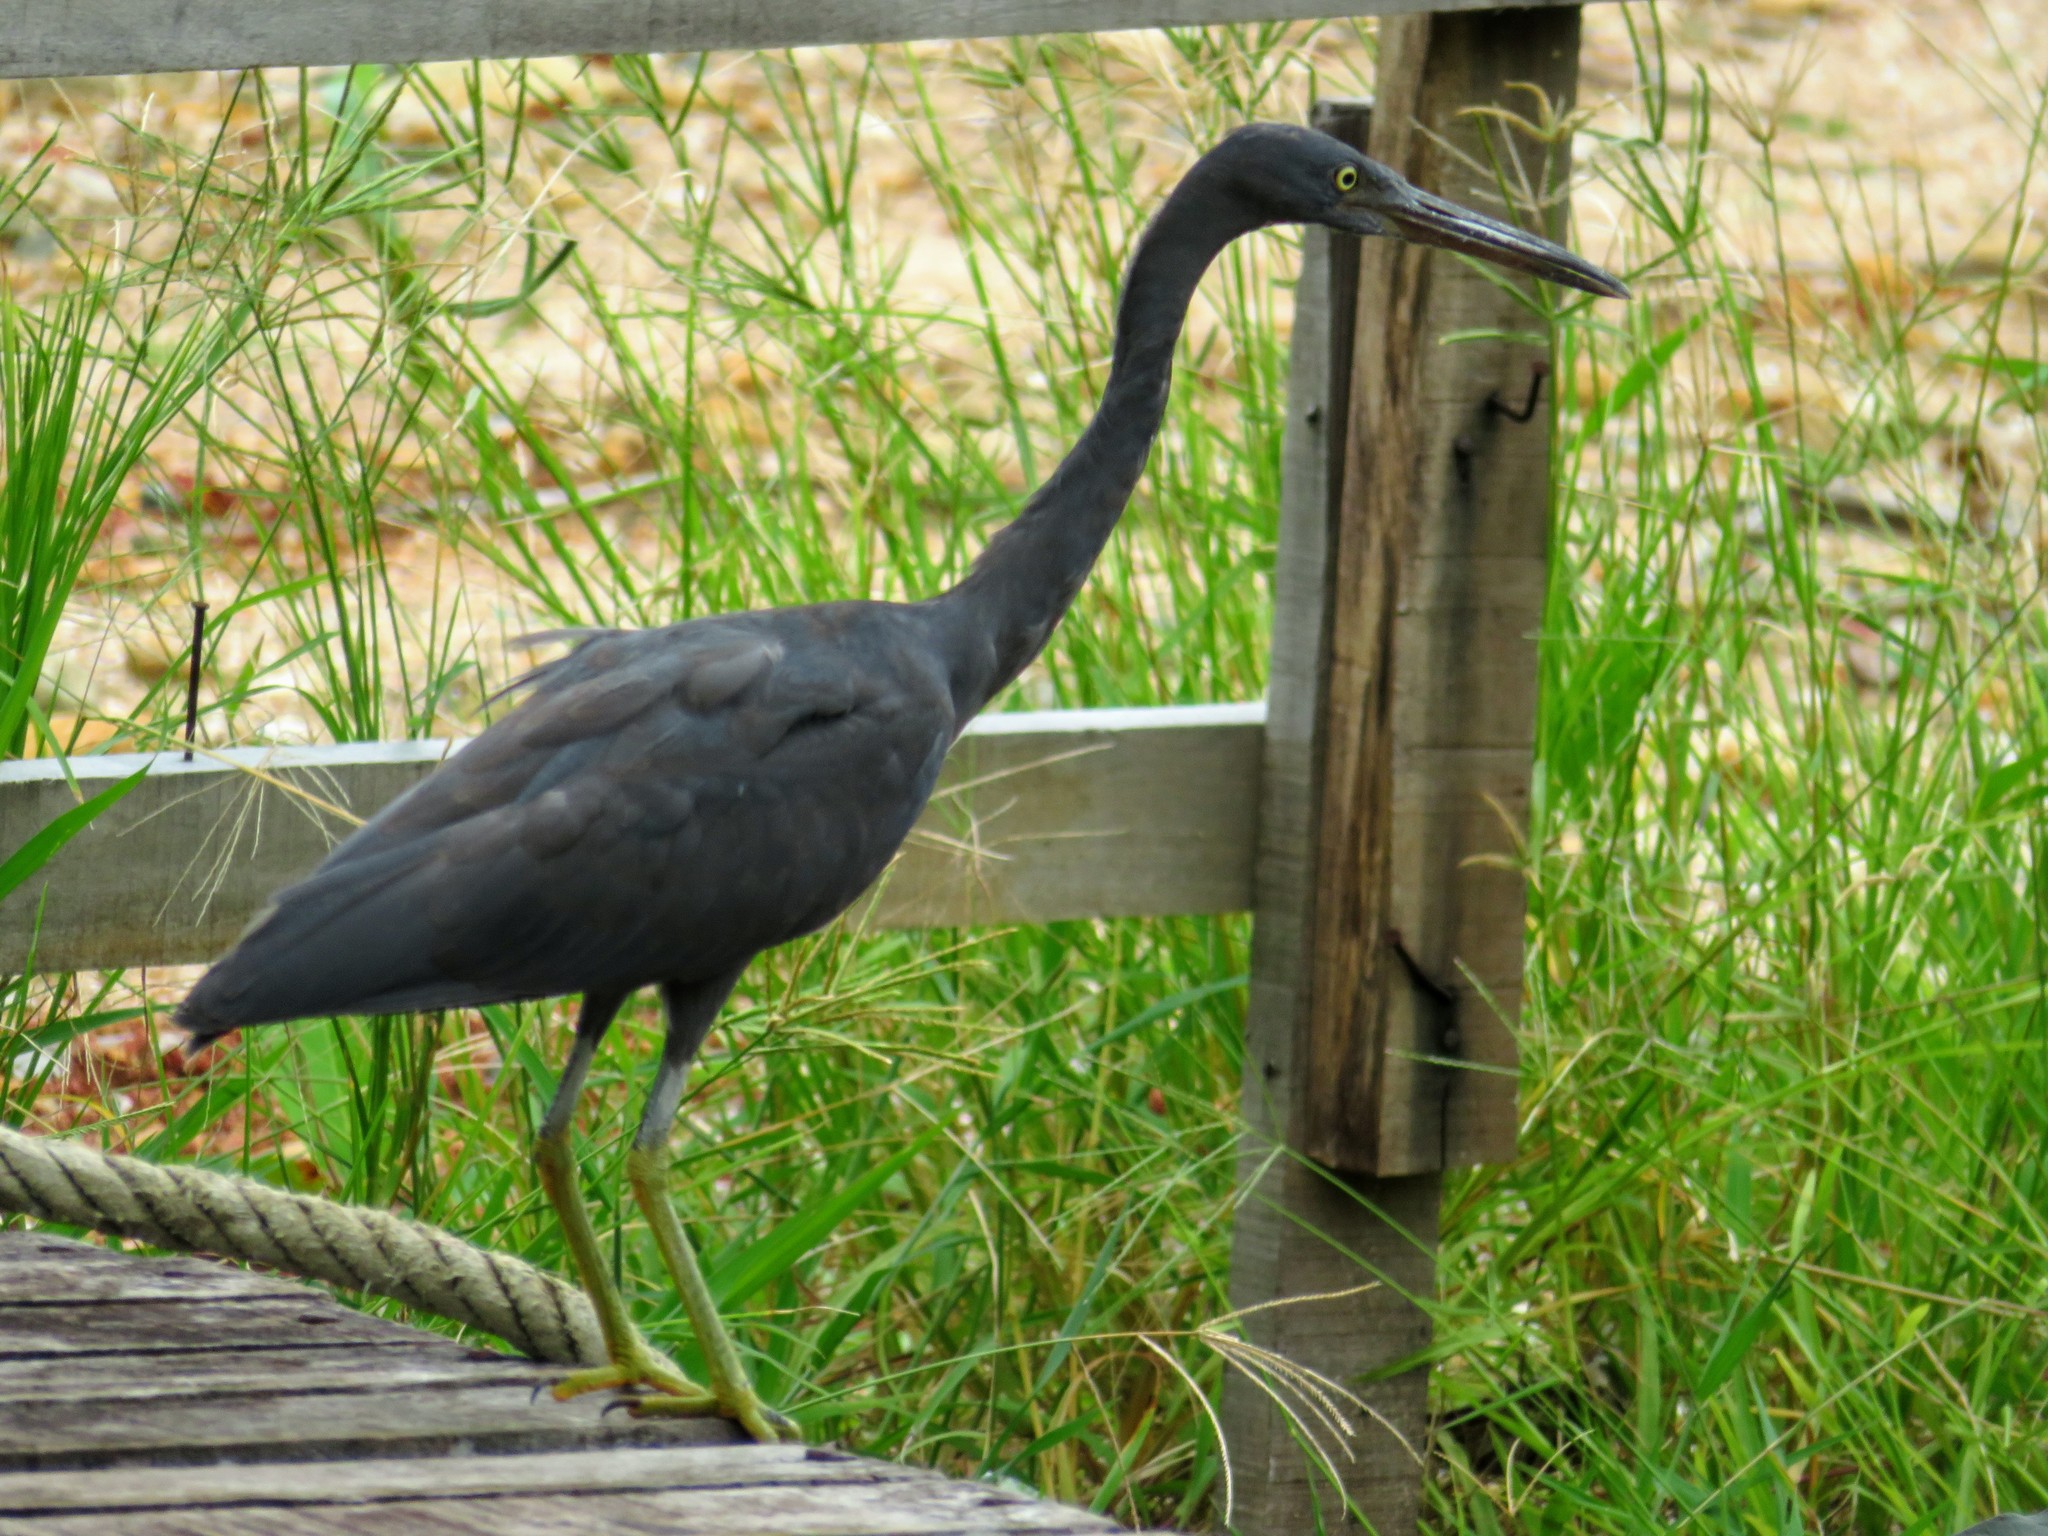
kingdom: Animalia
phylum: Chordata
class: Aves
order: Pelecaniformes
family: Ardeidae
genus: Egretta
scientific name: Egretta sacra
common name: Pacific reef heron
